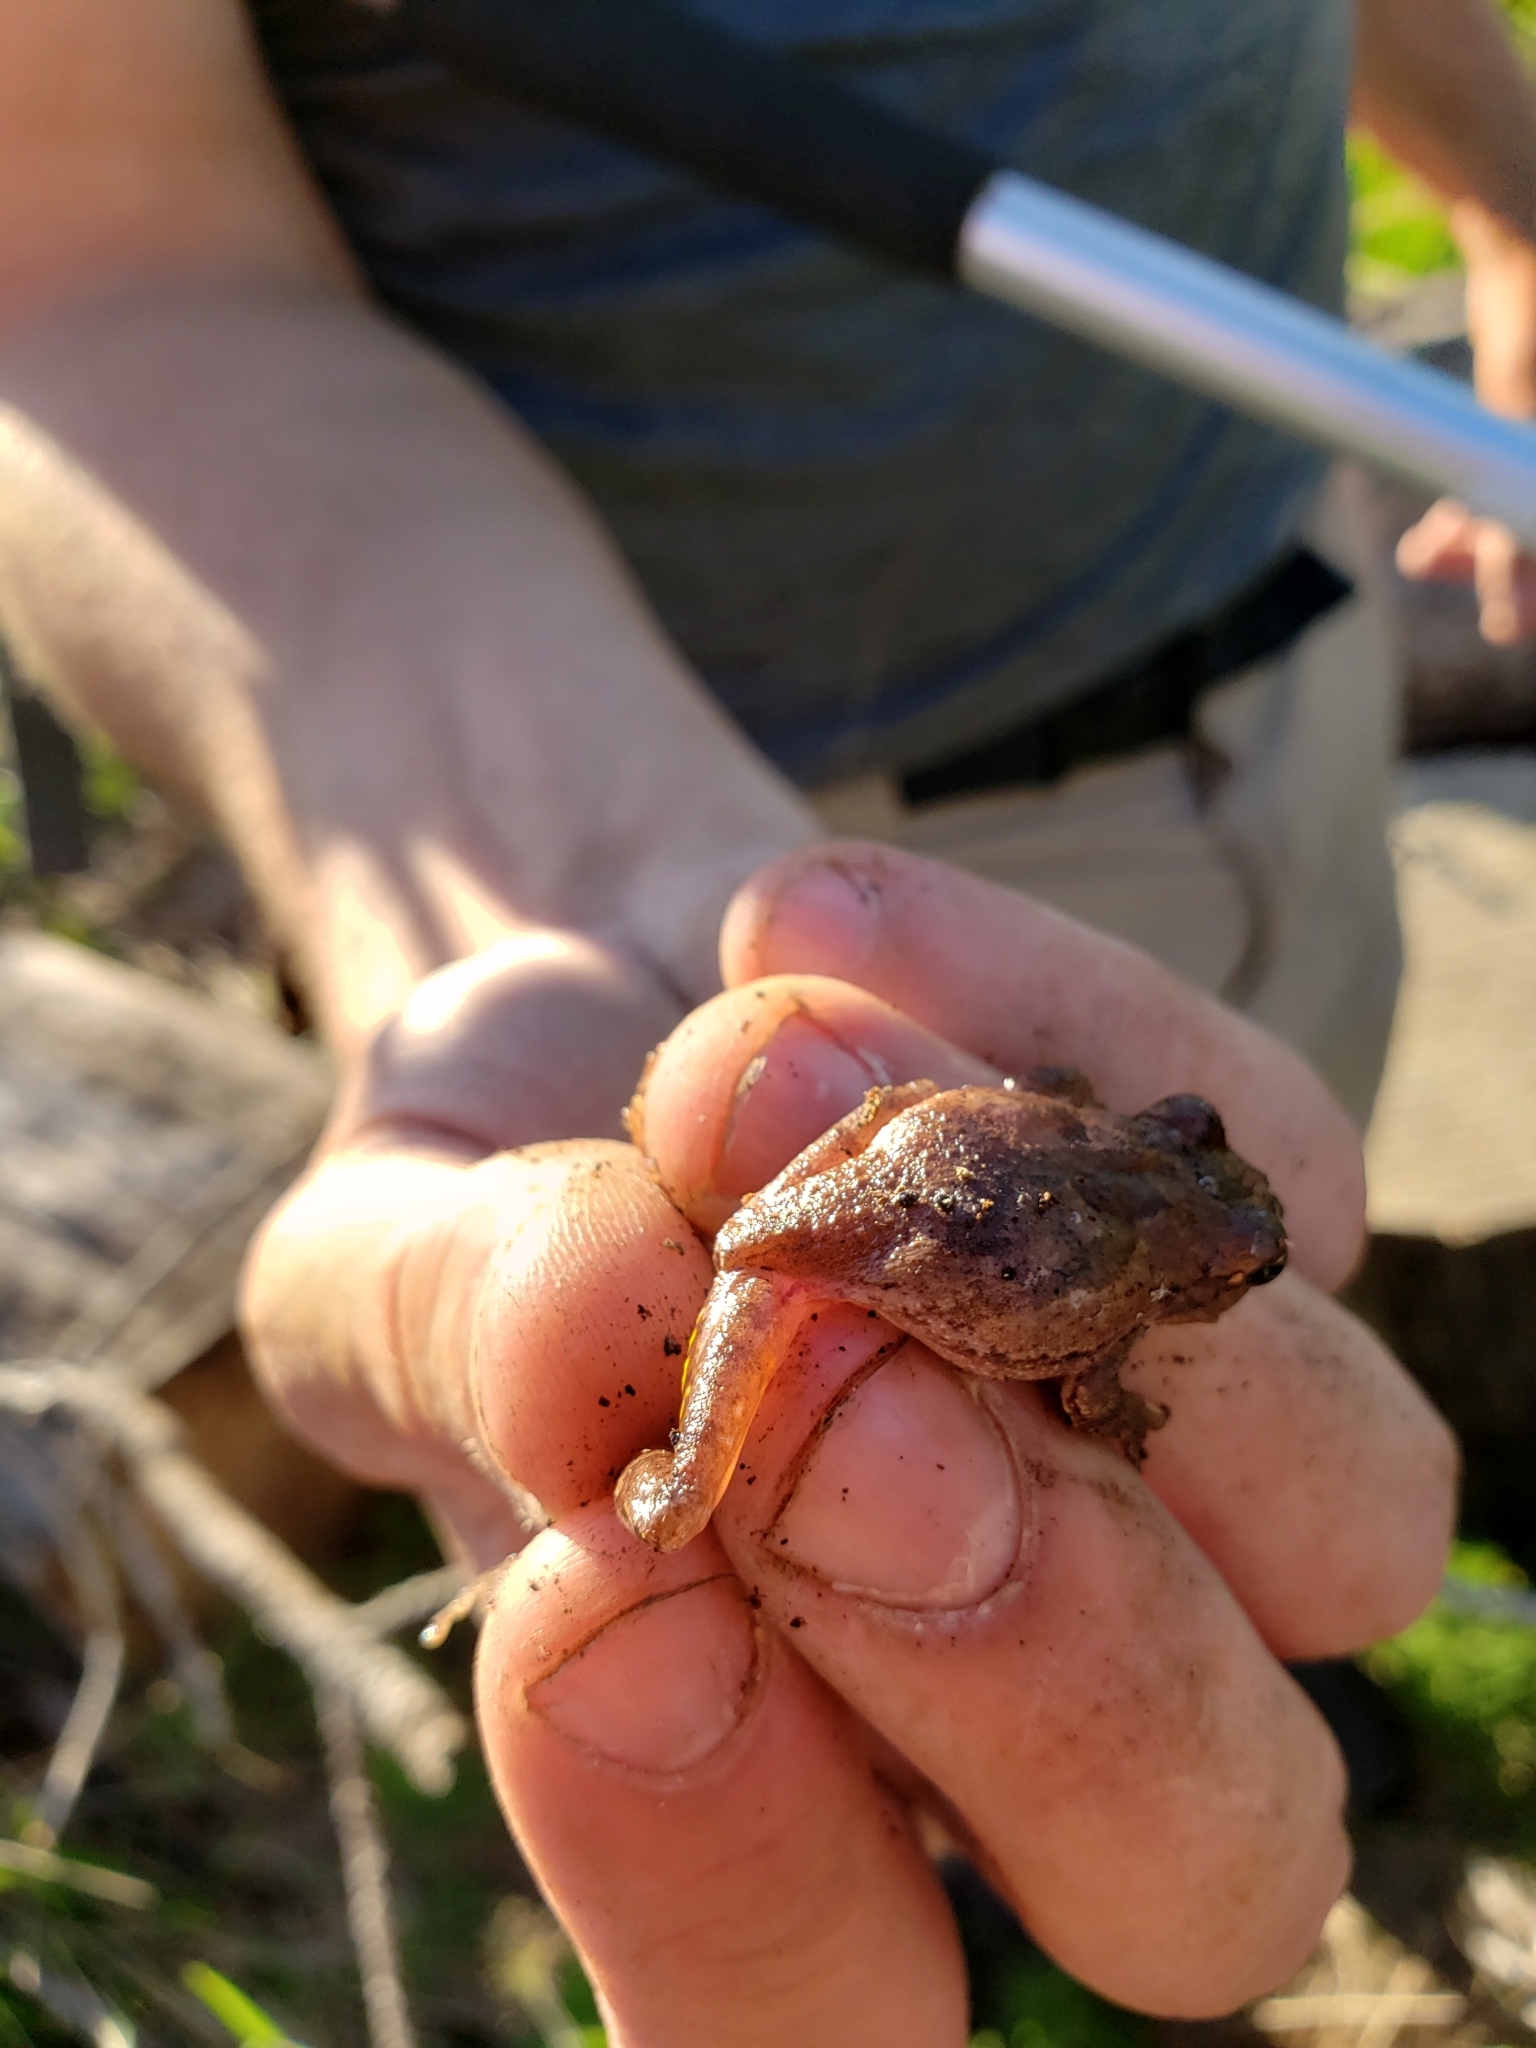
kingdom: Animalia
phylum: Chordata
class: Amphibia
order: Anura
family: Hylidae
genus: Hyla
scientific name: Hyla femoralis
